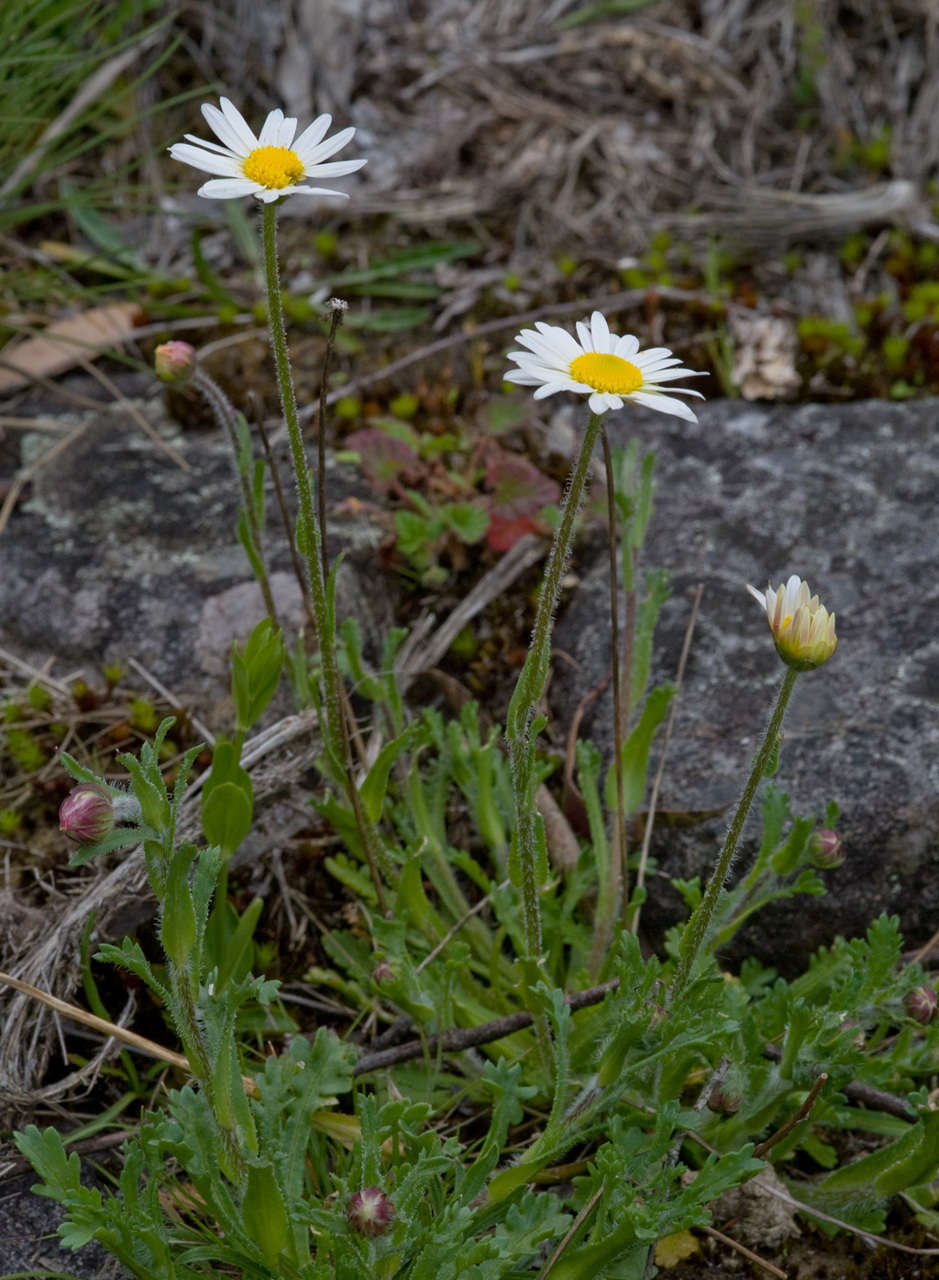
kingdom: Plantae
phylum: Tracheophyta
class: Magnoliopsida
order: Asterales
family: Asteraceae
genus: Brachyscome
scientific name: Brachyscome diversifolia
